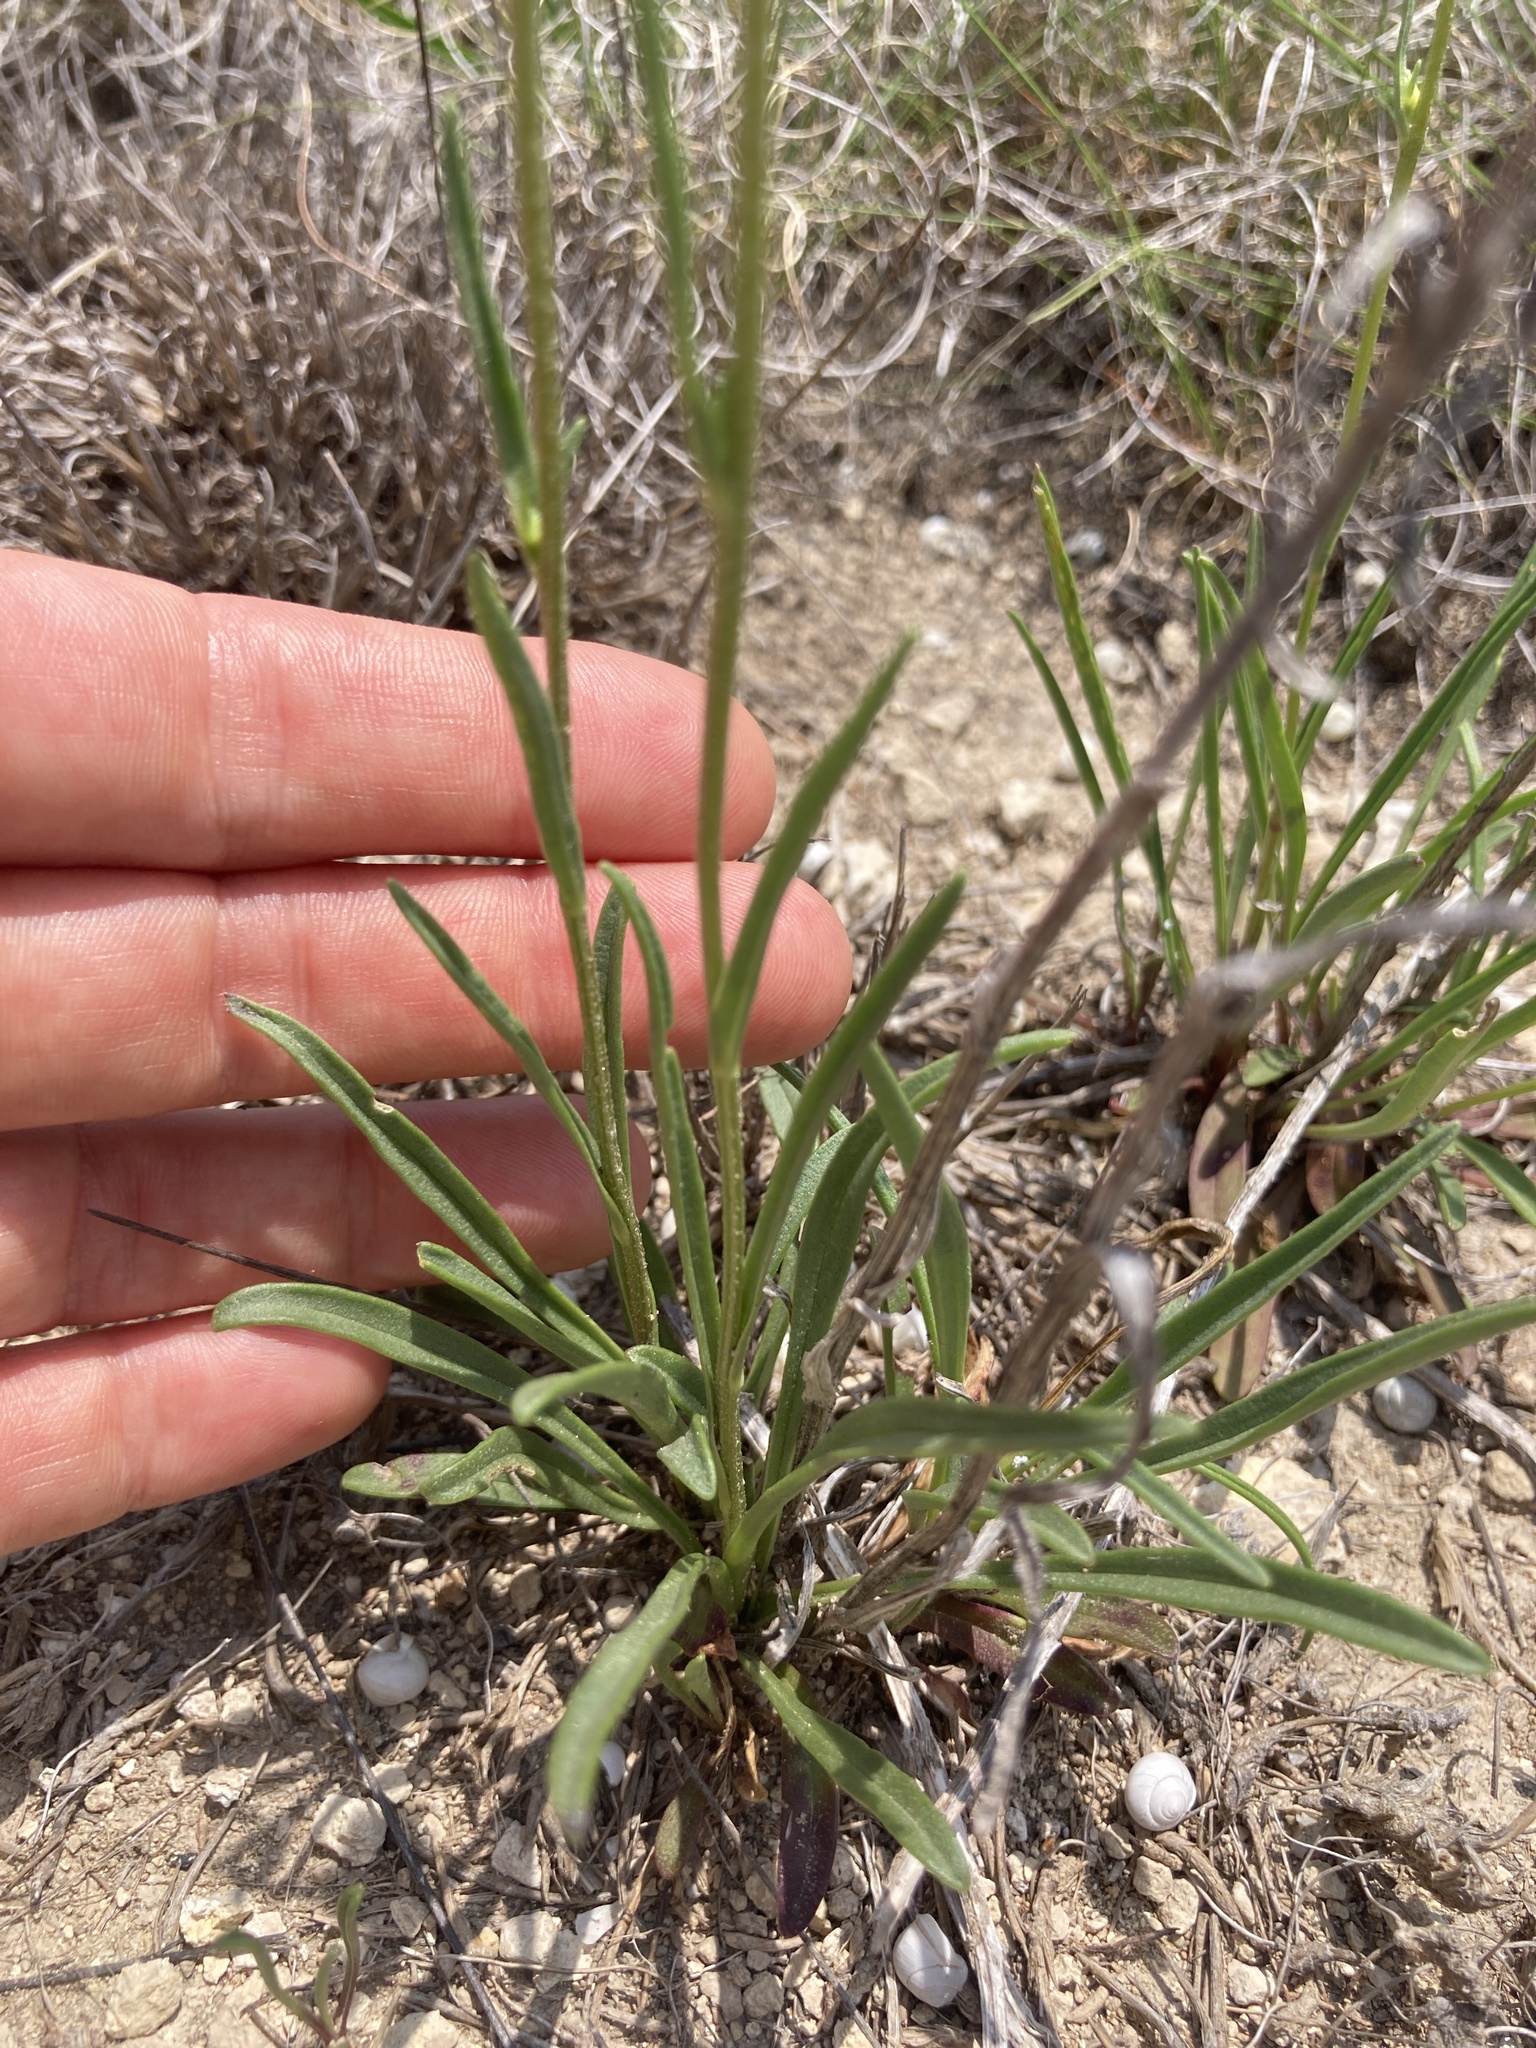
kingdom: Plantae
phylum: Tracheophyta
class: Magnoliopsida
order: Asterales
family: Asteraceae
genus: Marshallia
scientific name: Marshallia caespitosa
